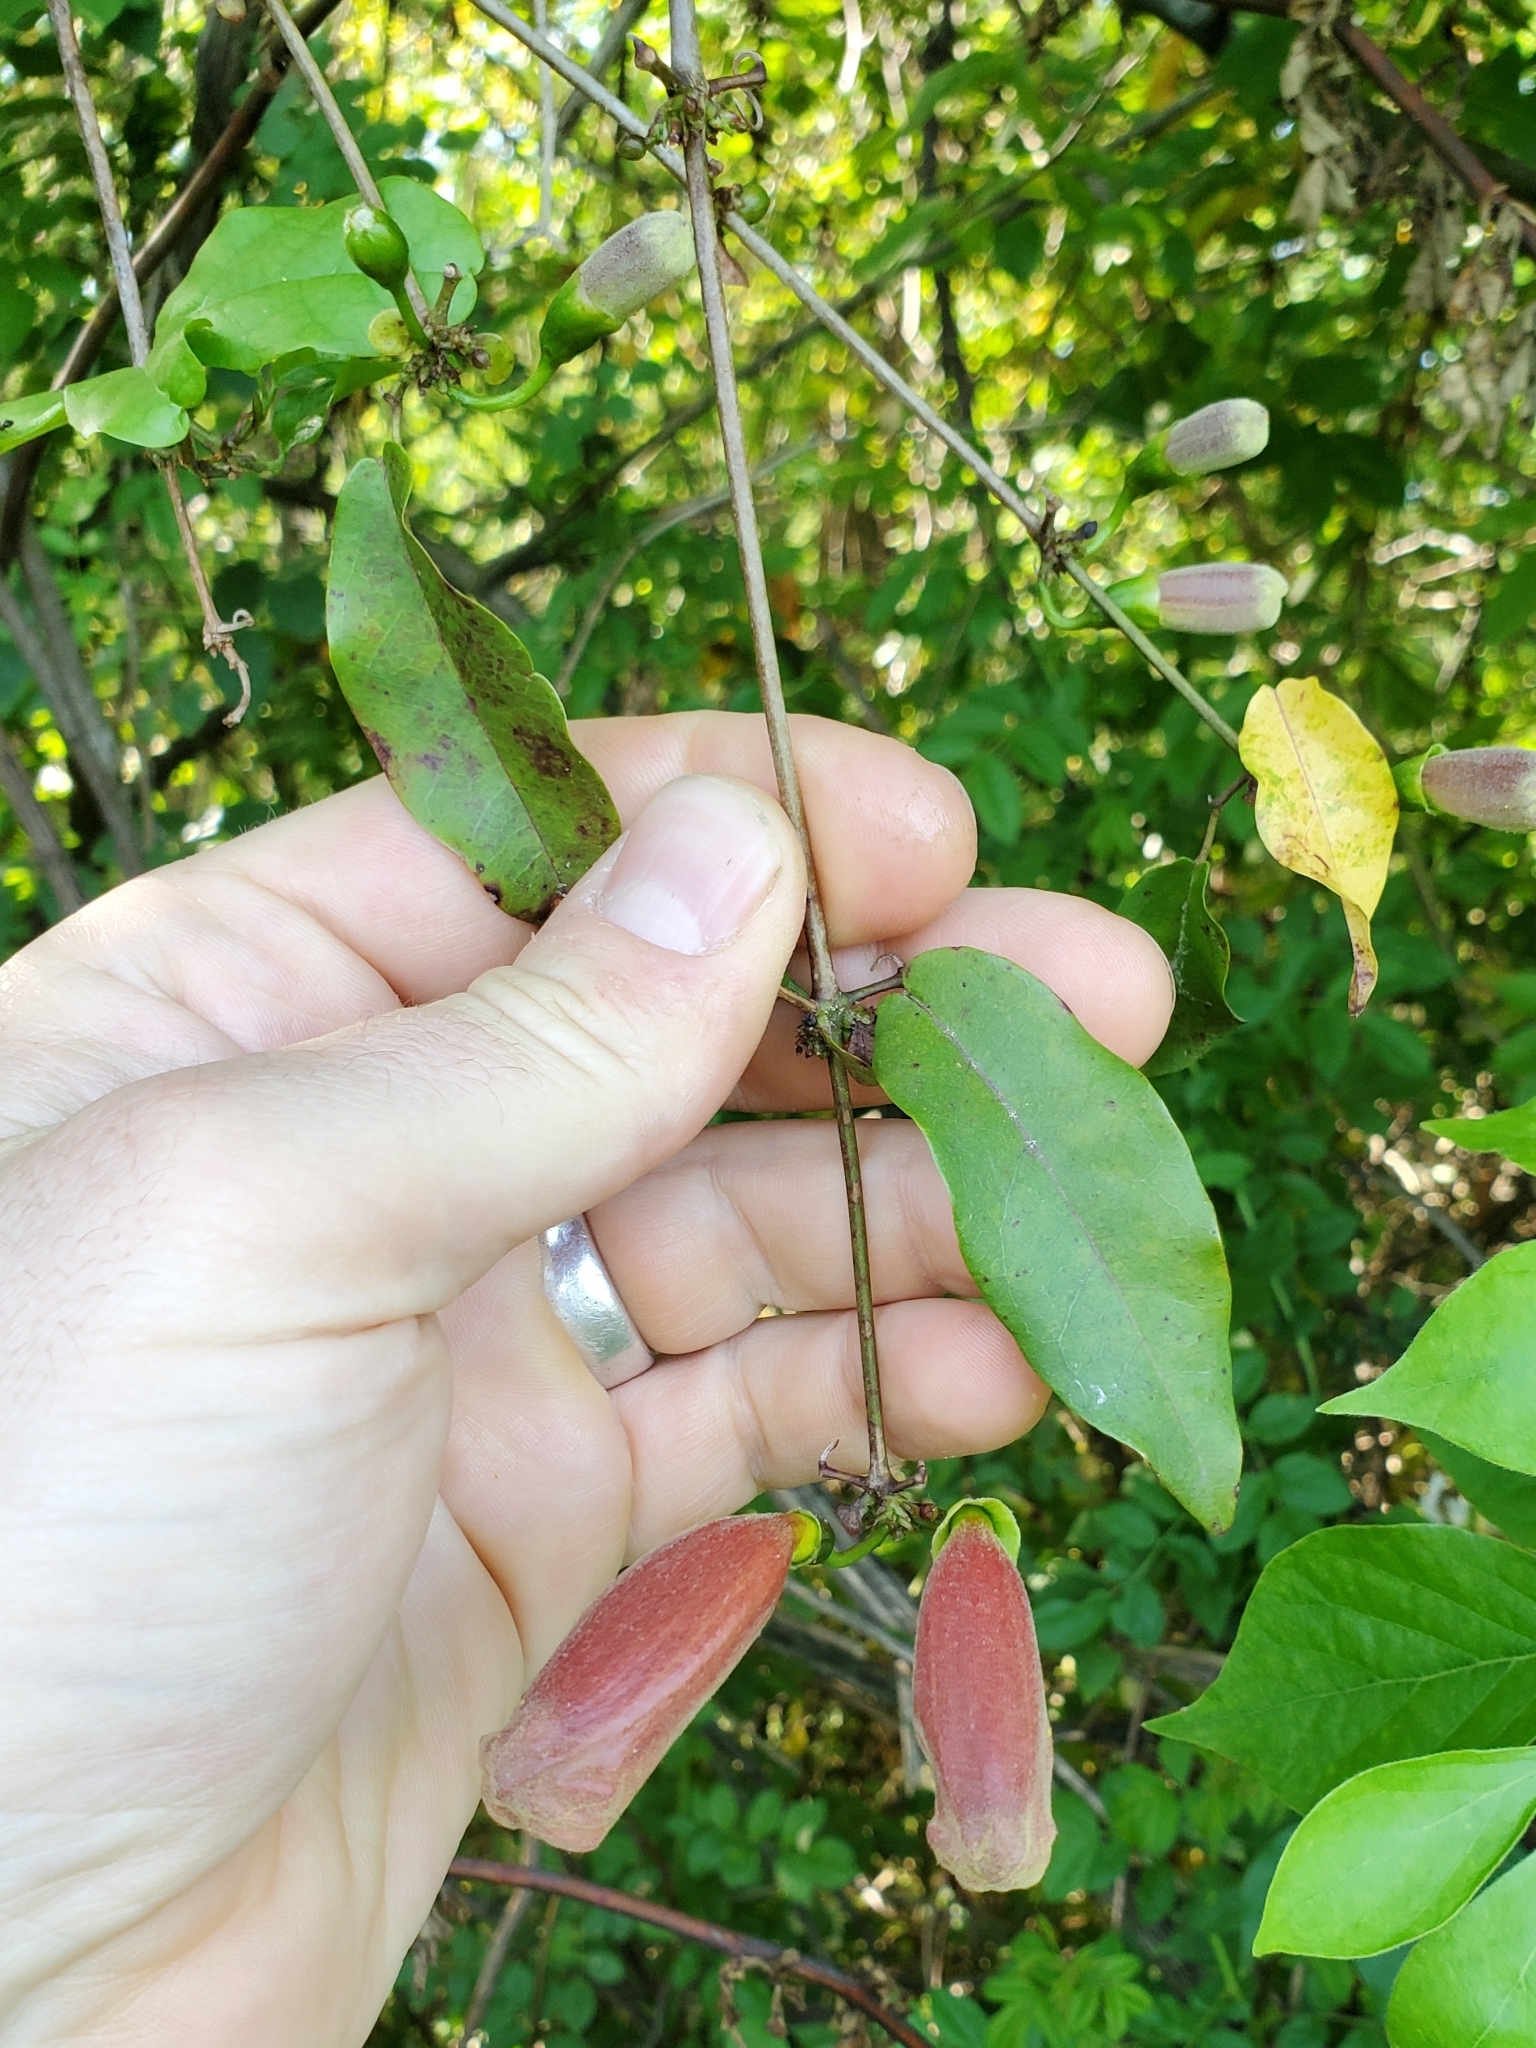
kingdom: Plantae
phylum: Tracheophyta
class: Magnoliopsida
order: Lamiales
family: Bignoniaceae
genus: Bignonia
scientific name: Bignonia capreolata
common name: Crossvine
